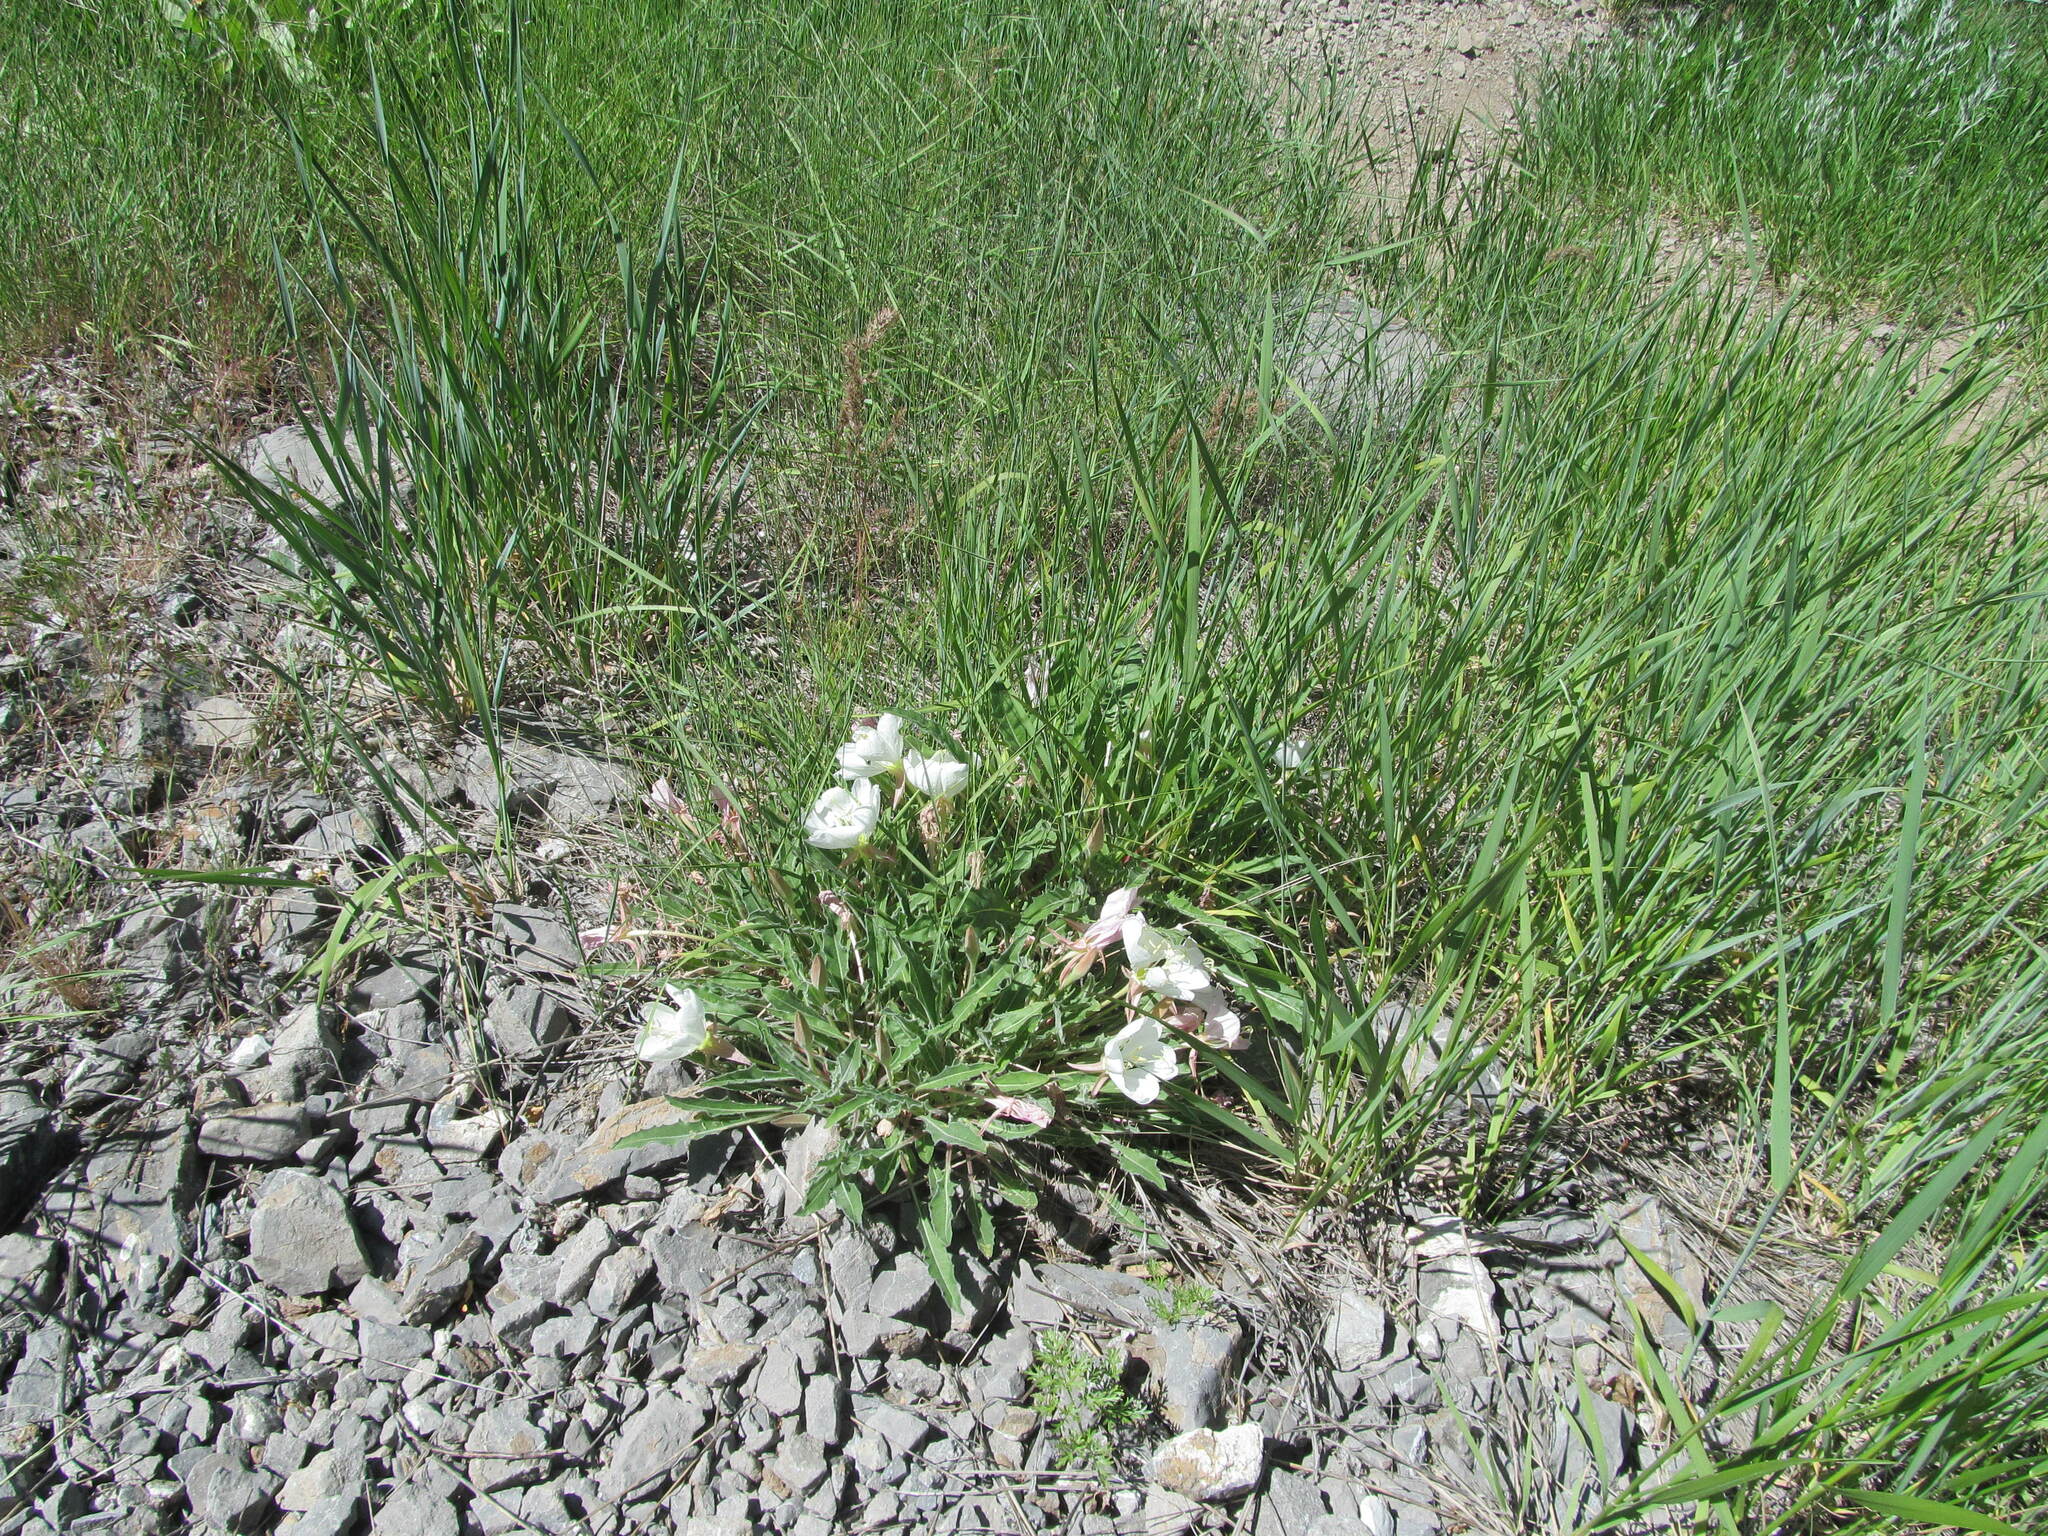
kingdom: Plantae
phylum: Tracheophyta
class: Magnoliopsida
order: Myrtales
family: Onagraceae
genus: Oenothera
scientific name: Oenothera cespitosa
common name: Tufted evening-primrose
